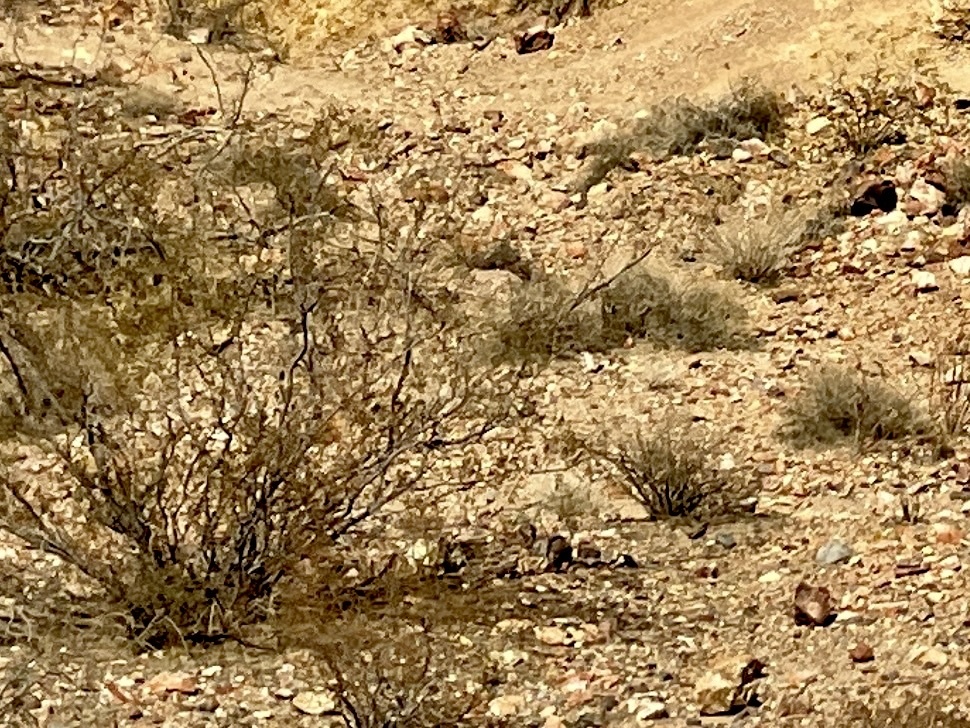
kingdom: Plantae
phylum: Tracheophyta
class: Magnoliopsida
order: Zygophyllales
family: Zygophyllaceae
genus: Larrea
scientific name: Larrea tridentata
